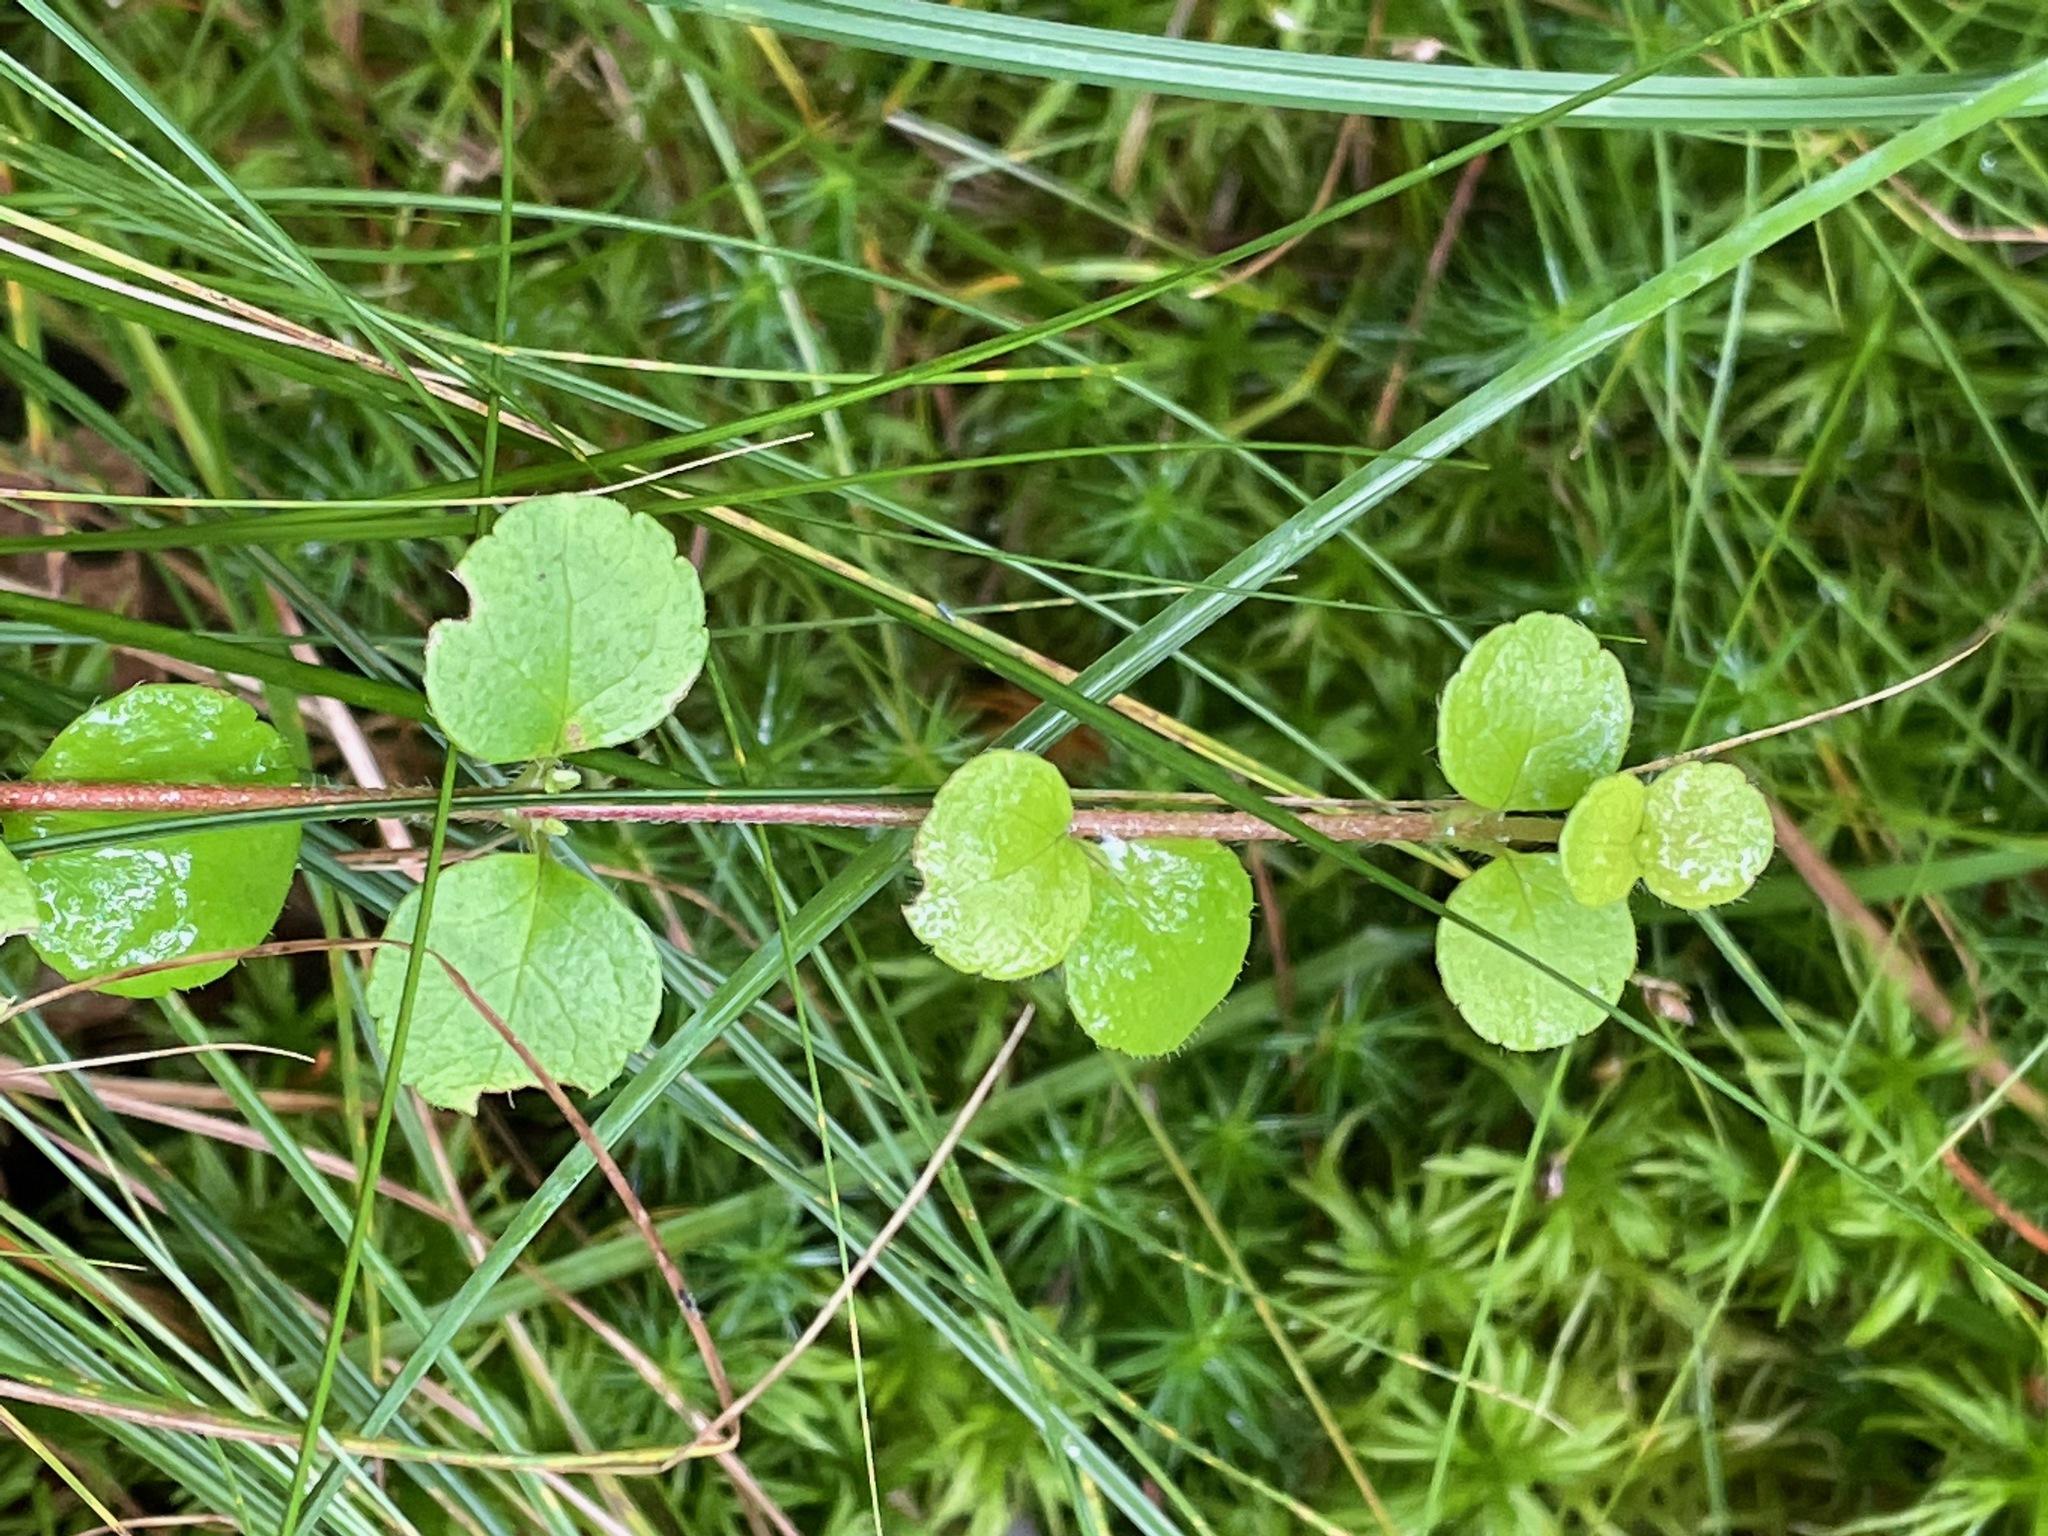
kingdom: Plantae
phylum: Tracheophyta
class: Magnoliopsida
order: Dipsacales
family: Caprifoliaceae
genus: Linnaea
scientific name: Linnaea borealis
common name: Twinflower
